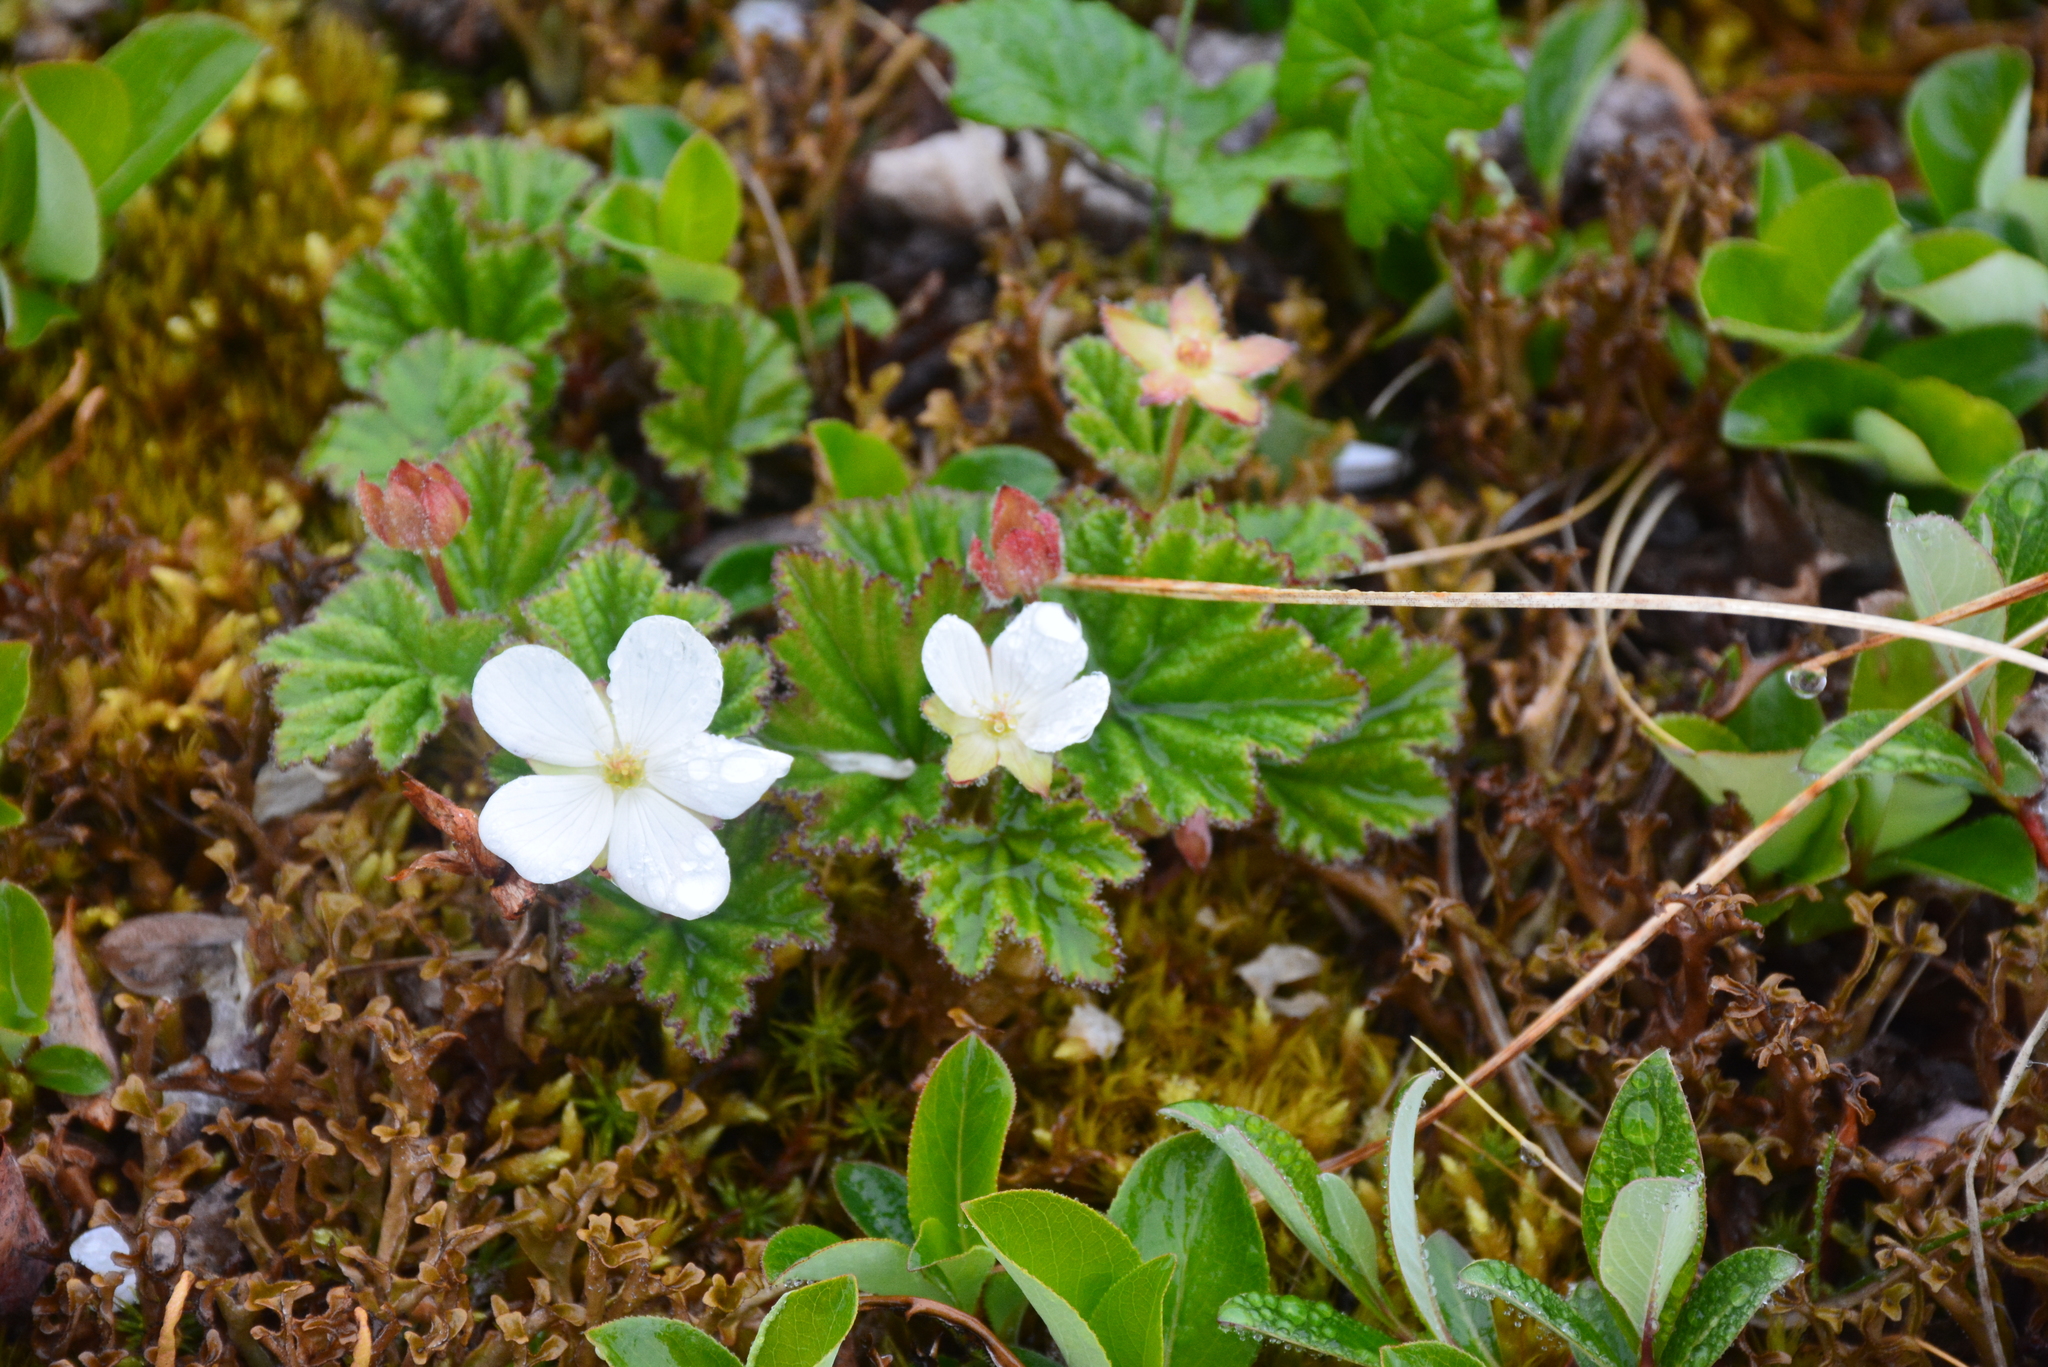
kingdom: Plantae
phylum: Tracheophyta
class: Magnoliopsida
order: Rosales
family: Rosaceae
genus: Rubus
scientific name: Rubus chamaemorus
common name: Cloudberry
